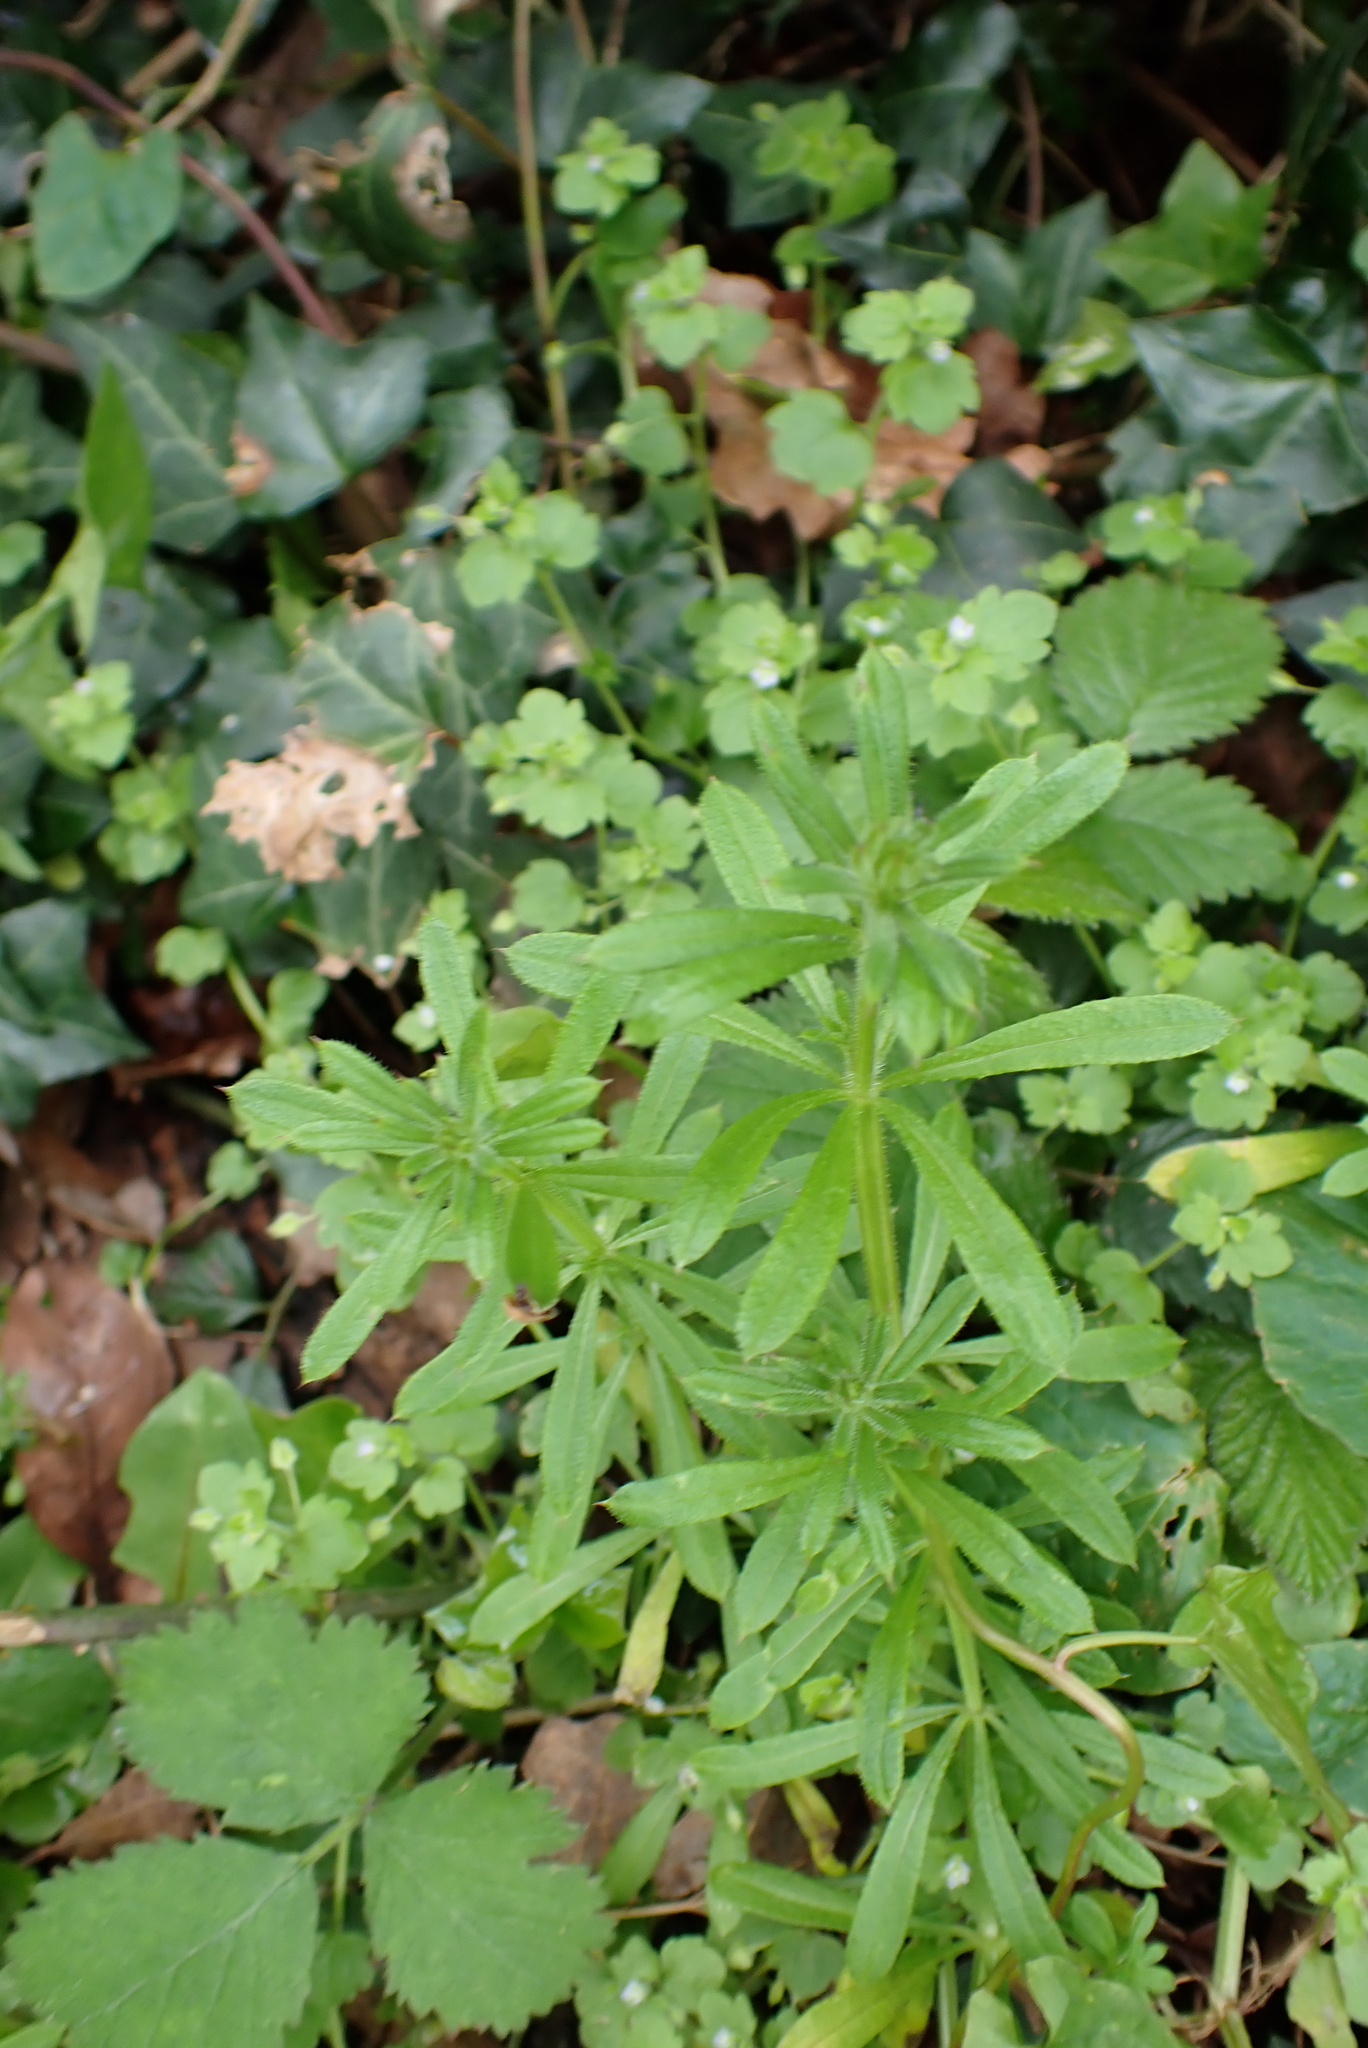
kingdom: Plantae
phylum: Tracheophyta
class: Magnoliopsida
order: Gentianales
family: Rubiaceae
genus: Galium
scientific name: Galium aparine
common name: Cleavers
